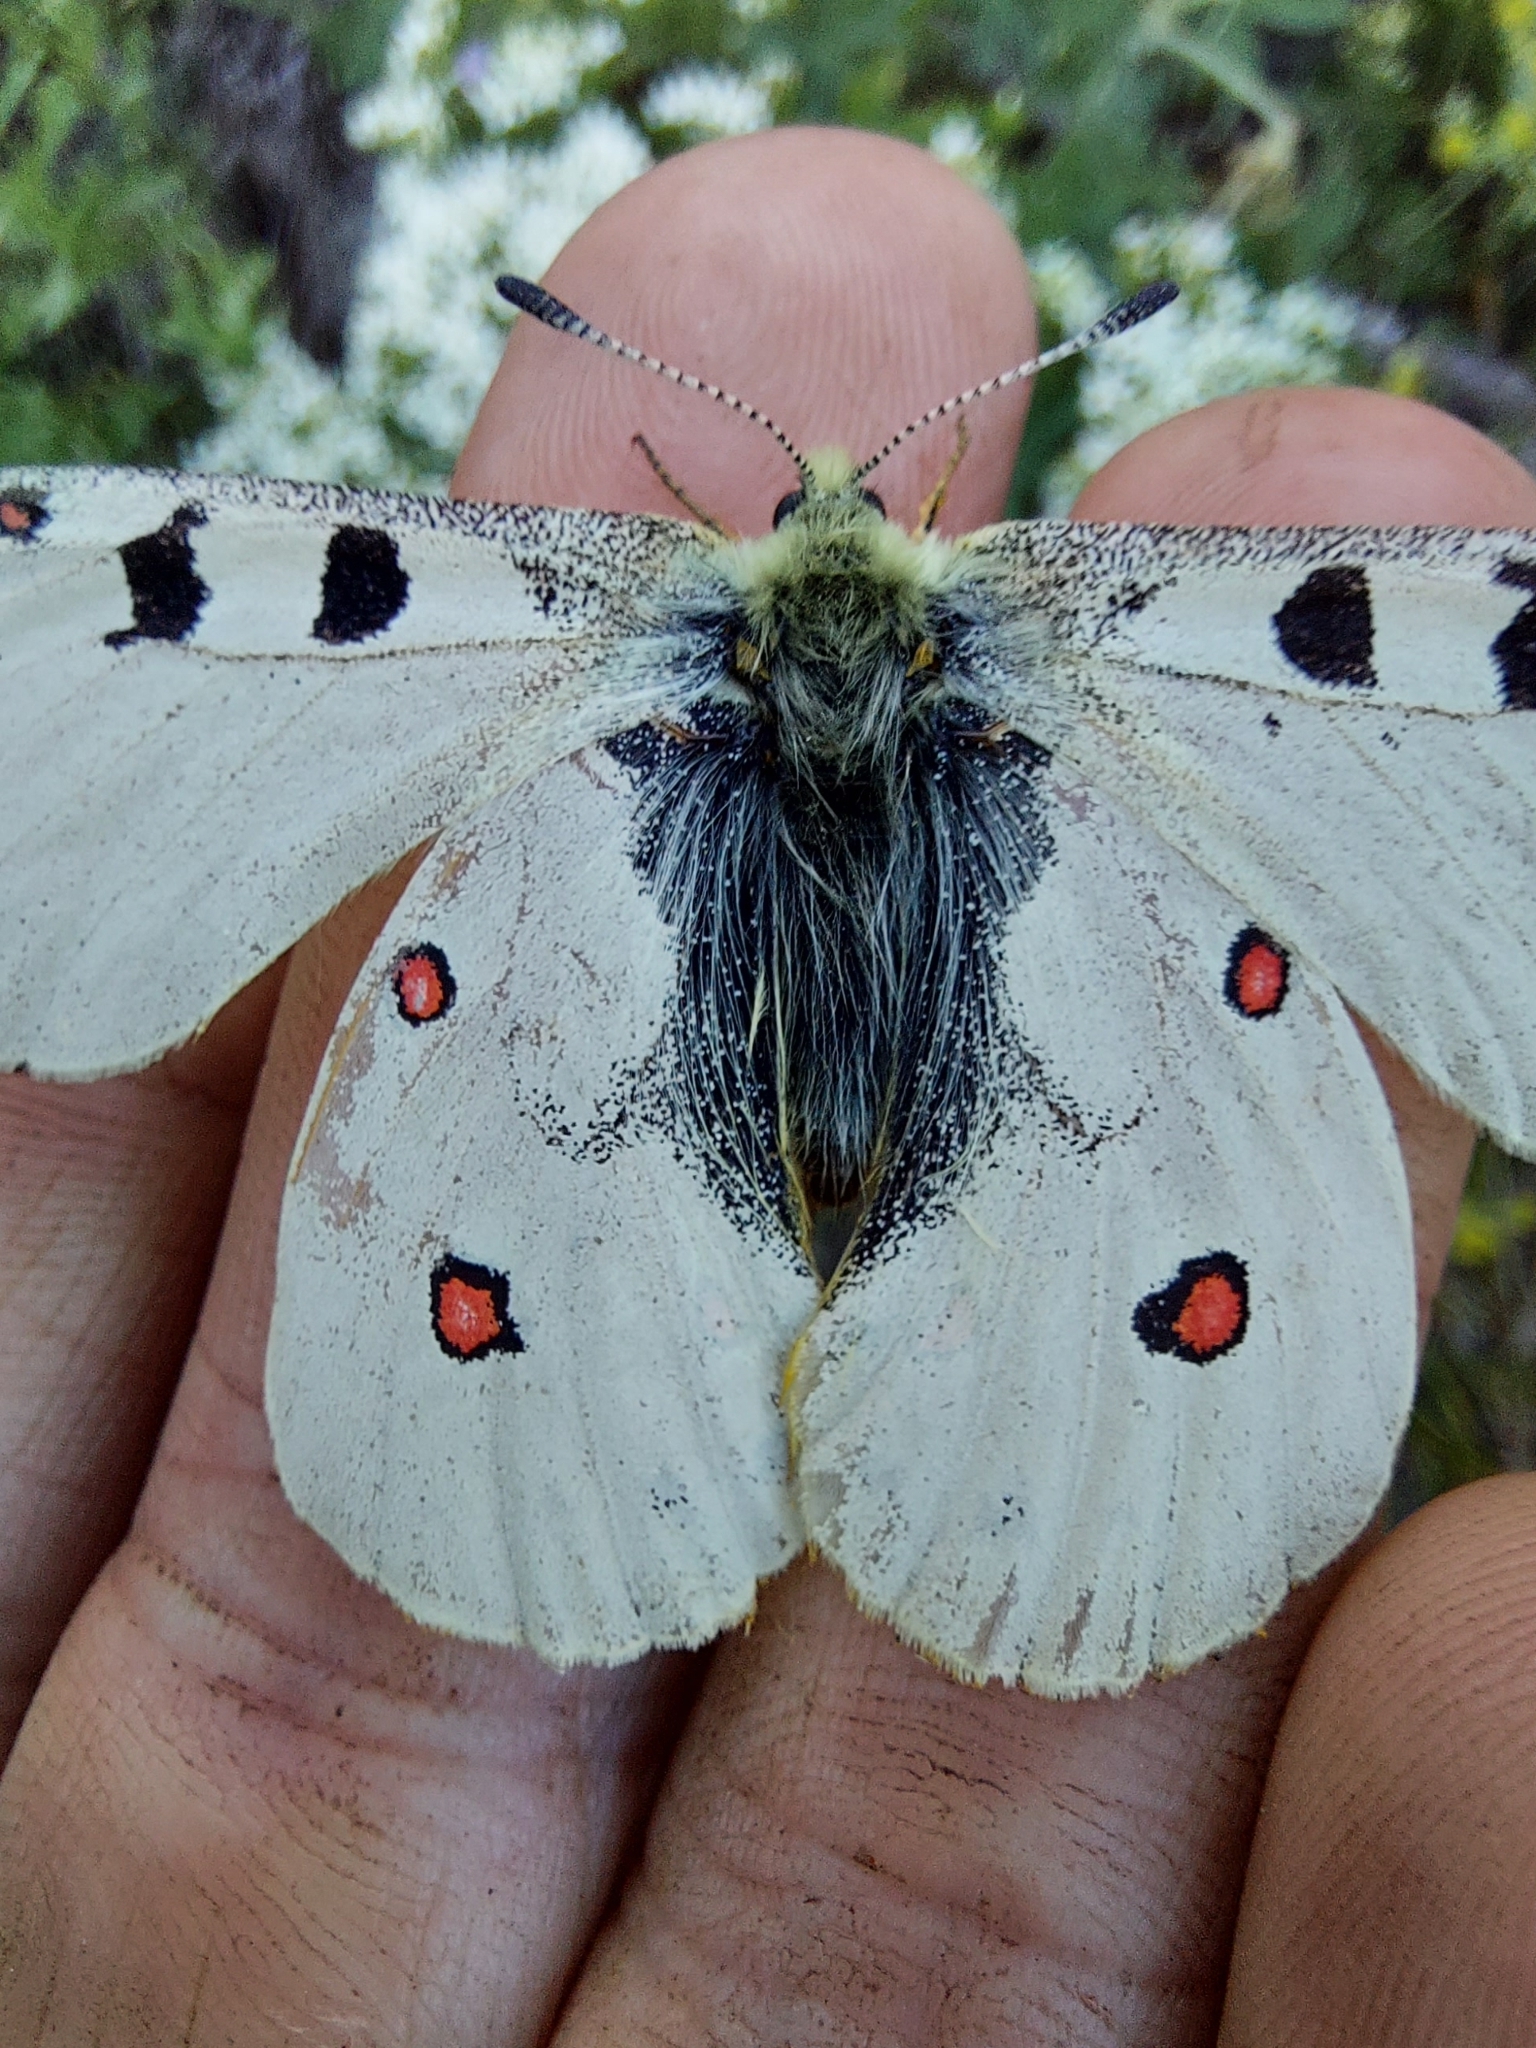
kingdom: Animalia
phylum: Arthropoda
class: Insecta
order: Lepidoptera
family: Papilionidae
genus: Parnassius
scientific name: Parnassius smintheus
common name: Mountain parnassian
